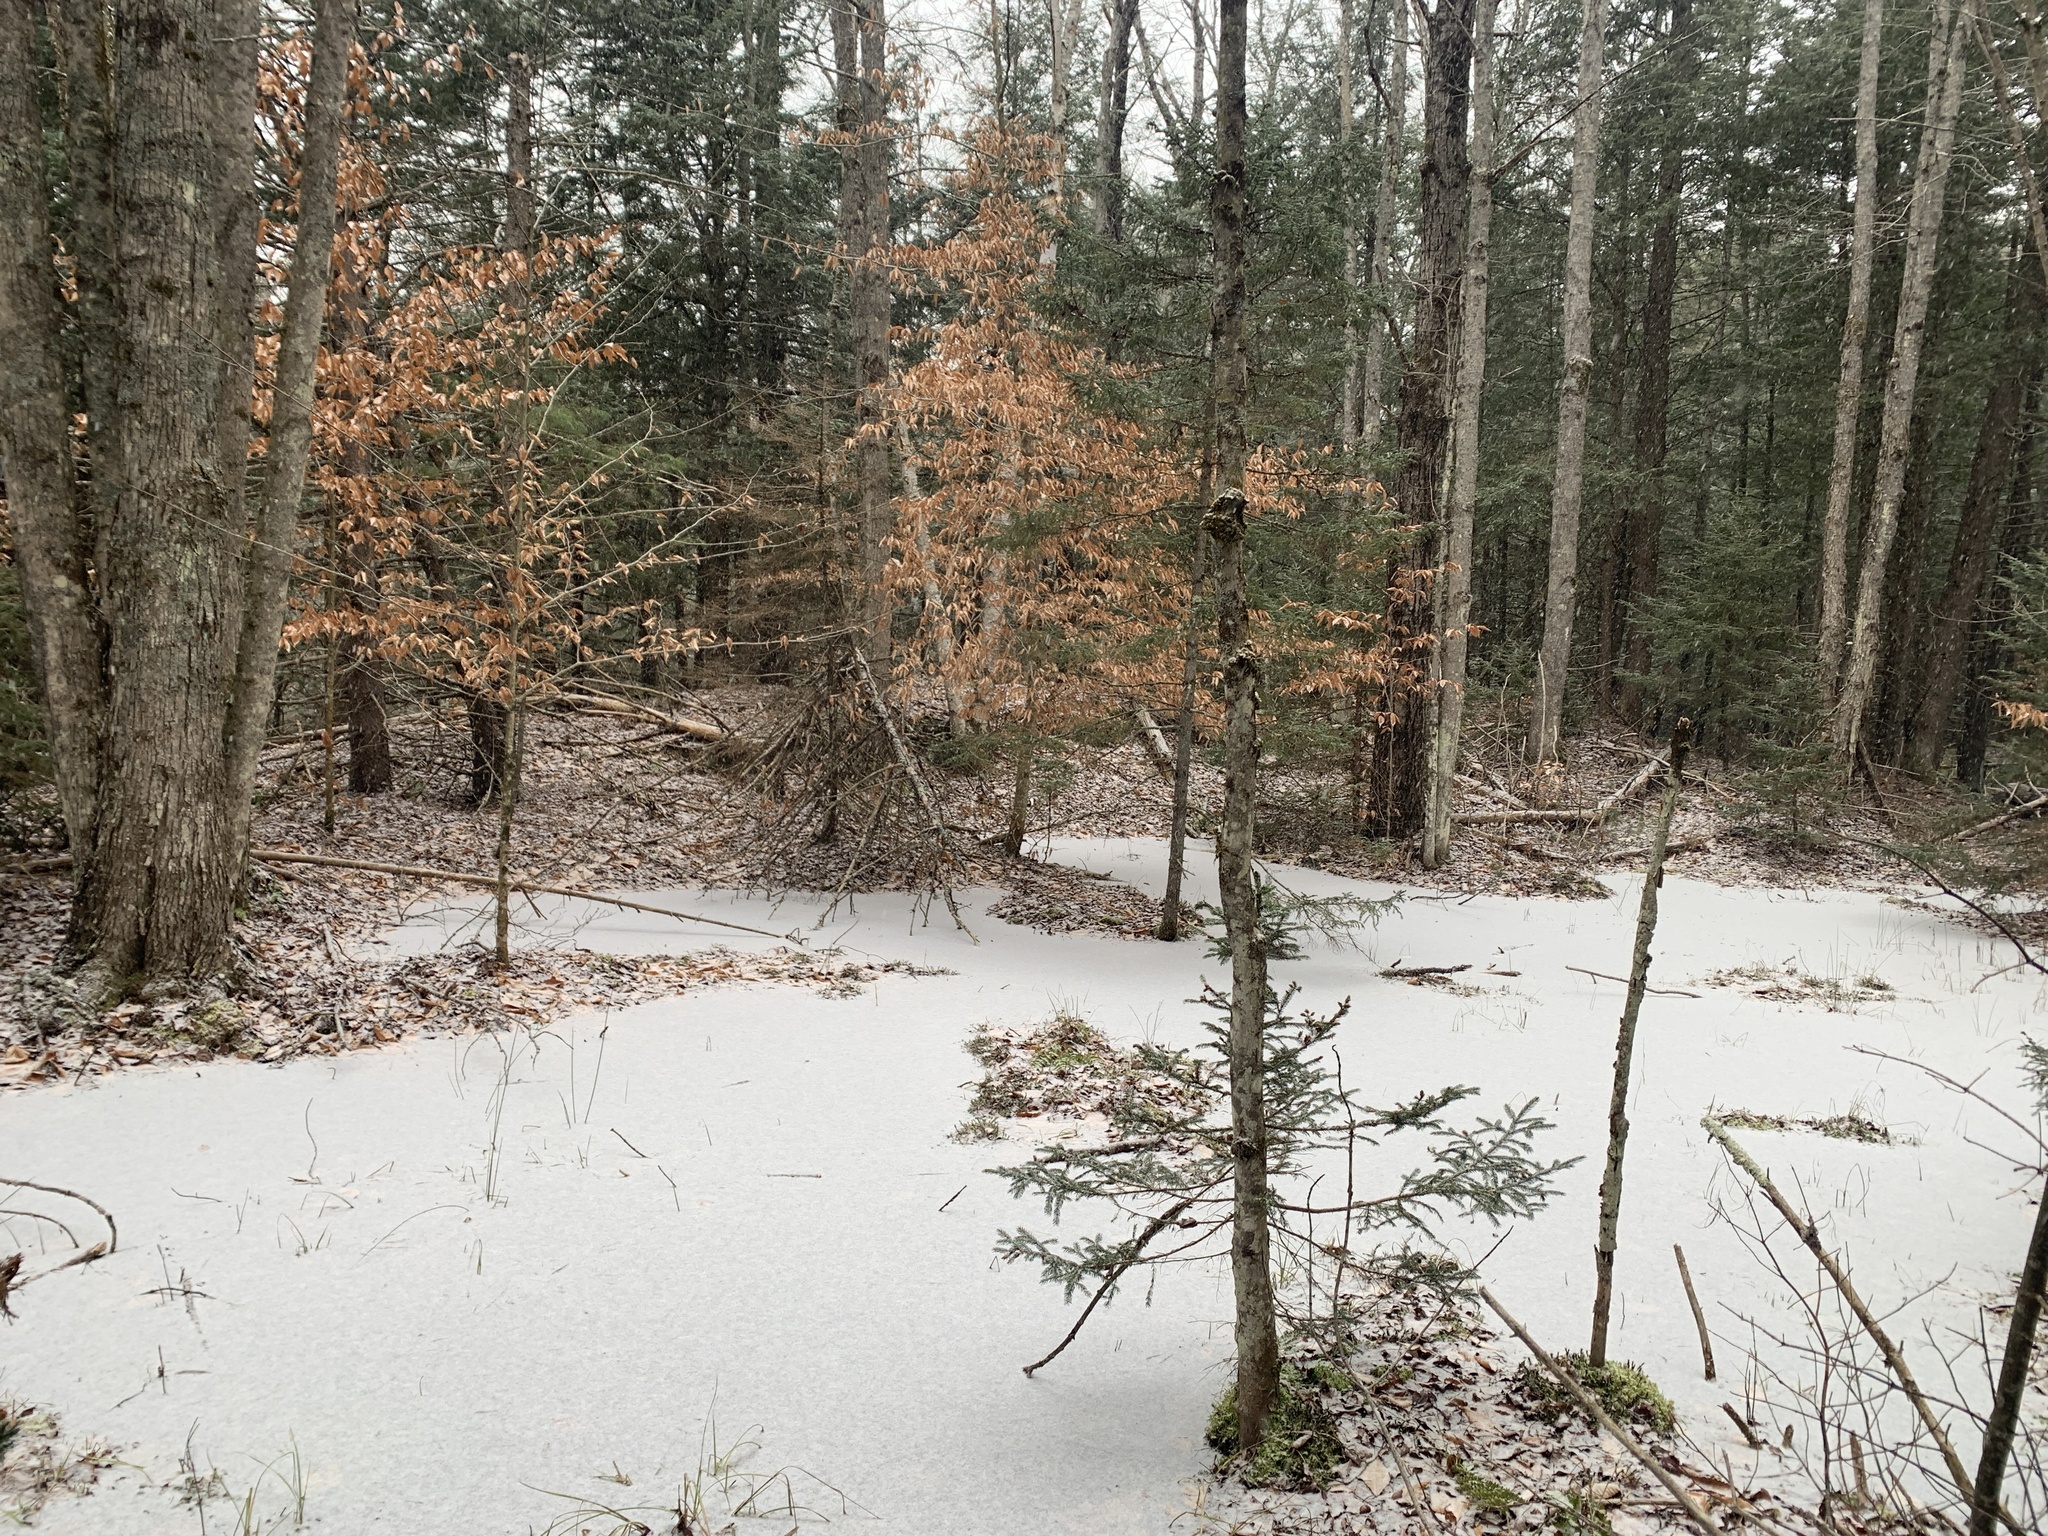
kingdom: Plantae
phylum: Tracheophyta
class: Magnoliopsida
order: Fagales
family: Fagaceae
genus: Fagus
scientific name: Fagus grandifolia
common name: American beech
